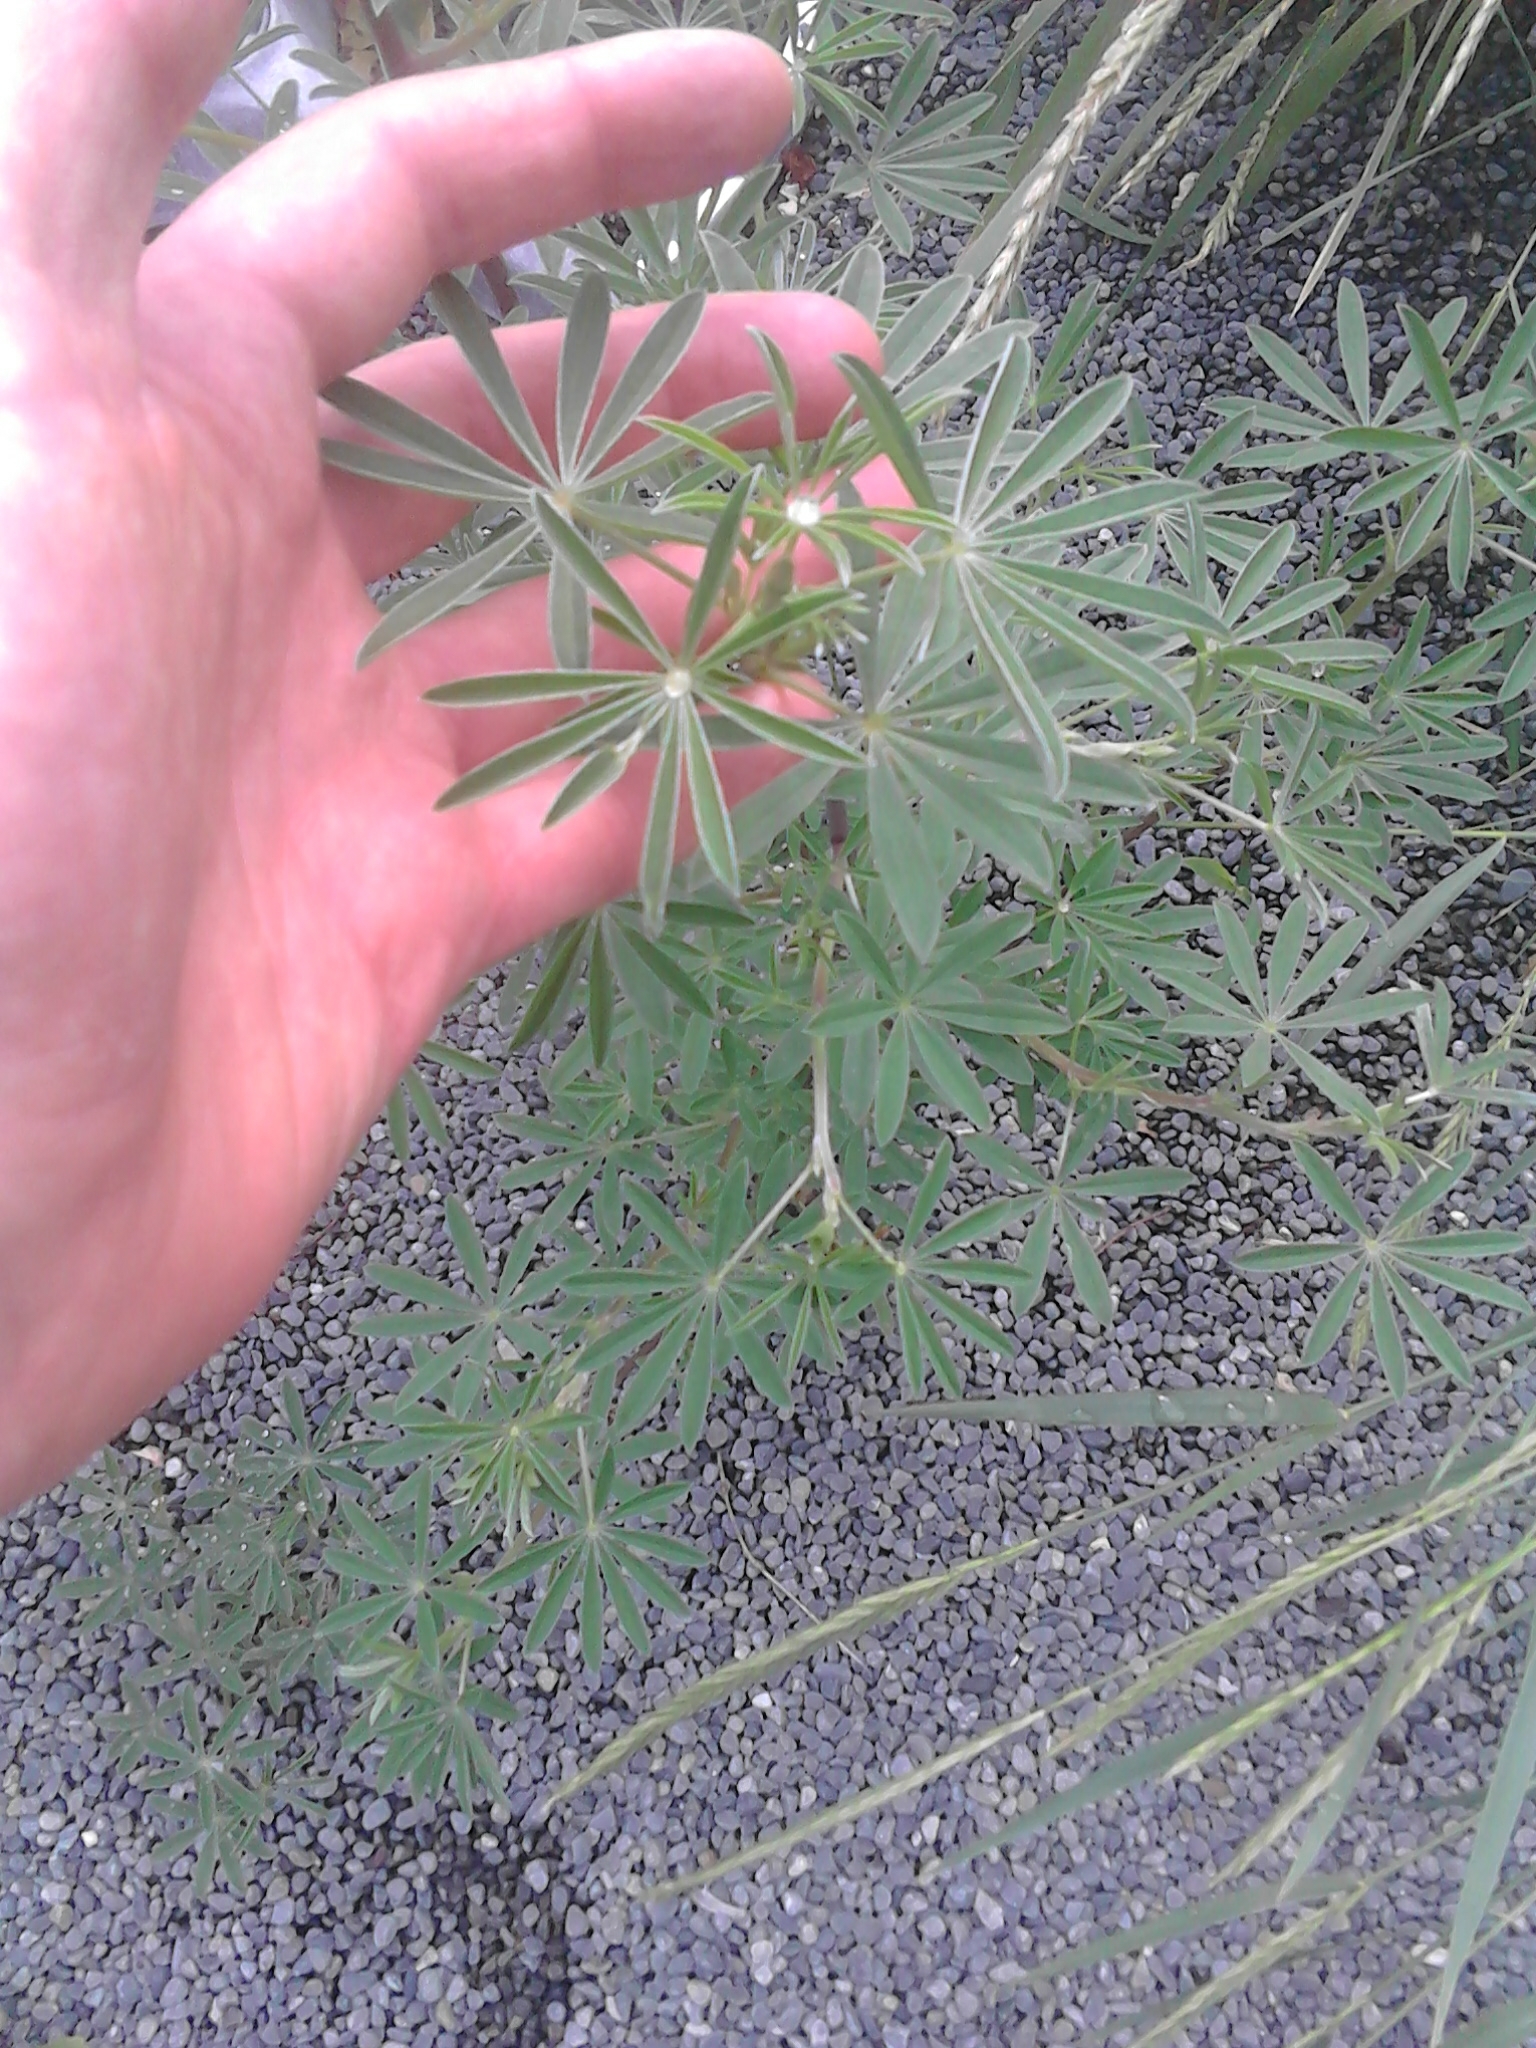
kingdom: Plantae
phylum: Tracheophyta
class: Magnoliopsida
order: Fabales
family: Fabaceae
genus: Lupinus
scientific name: Lupinus arboreus
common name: Yellow bush lupine
